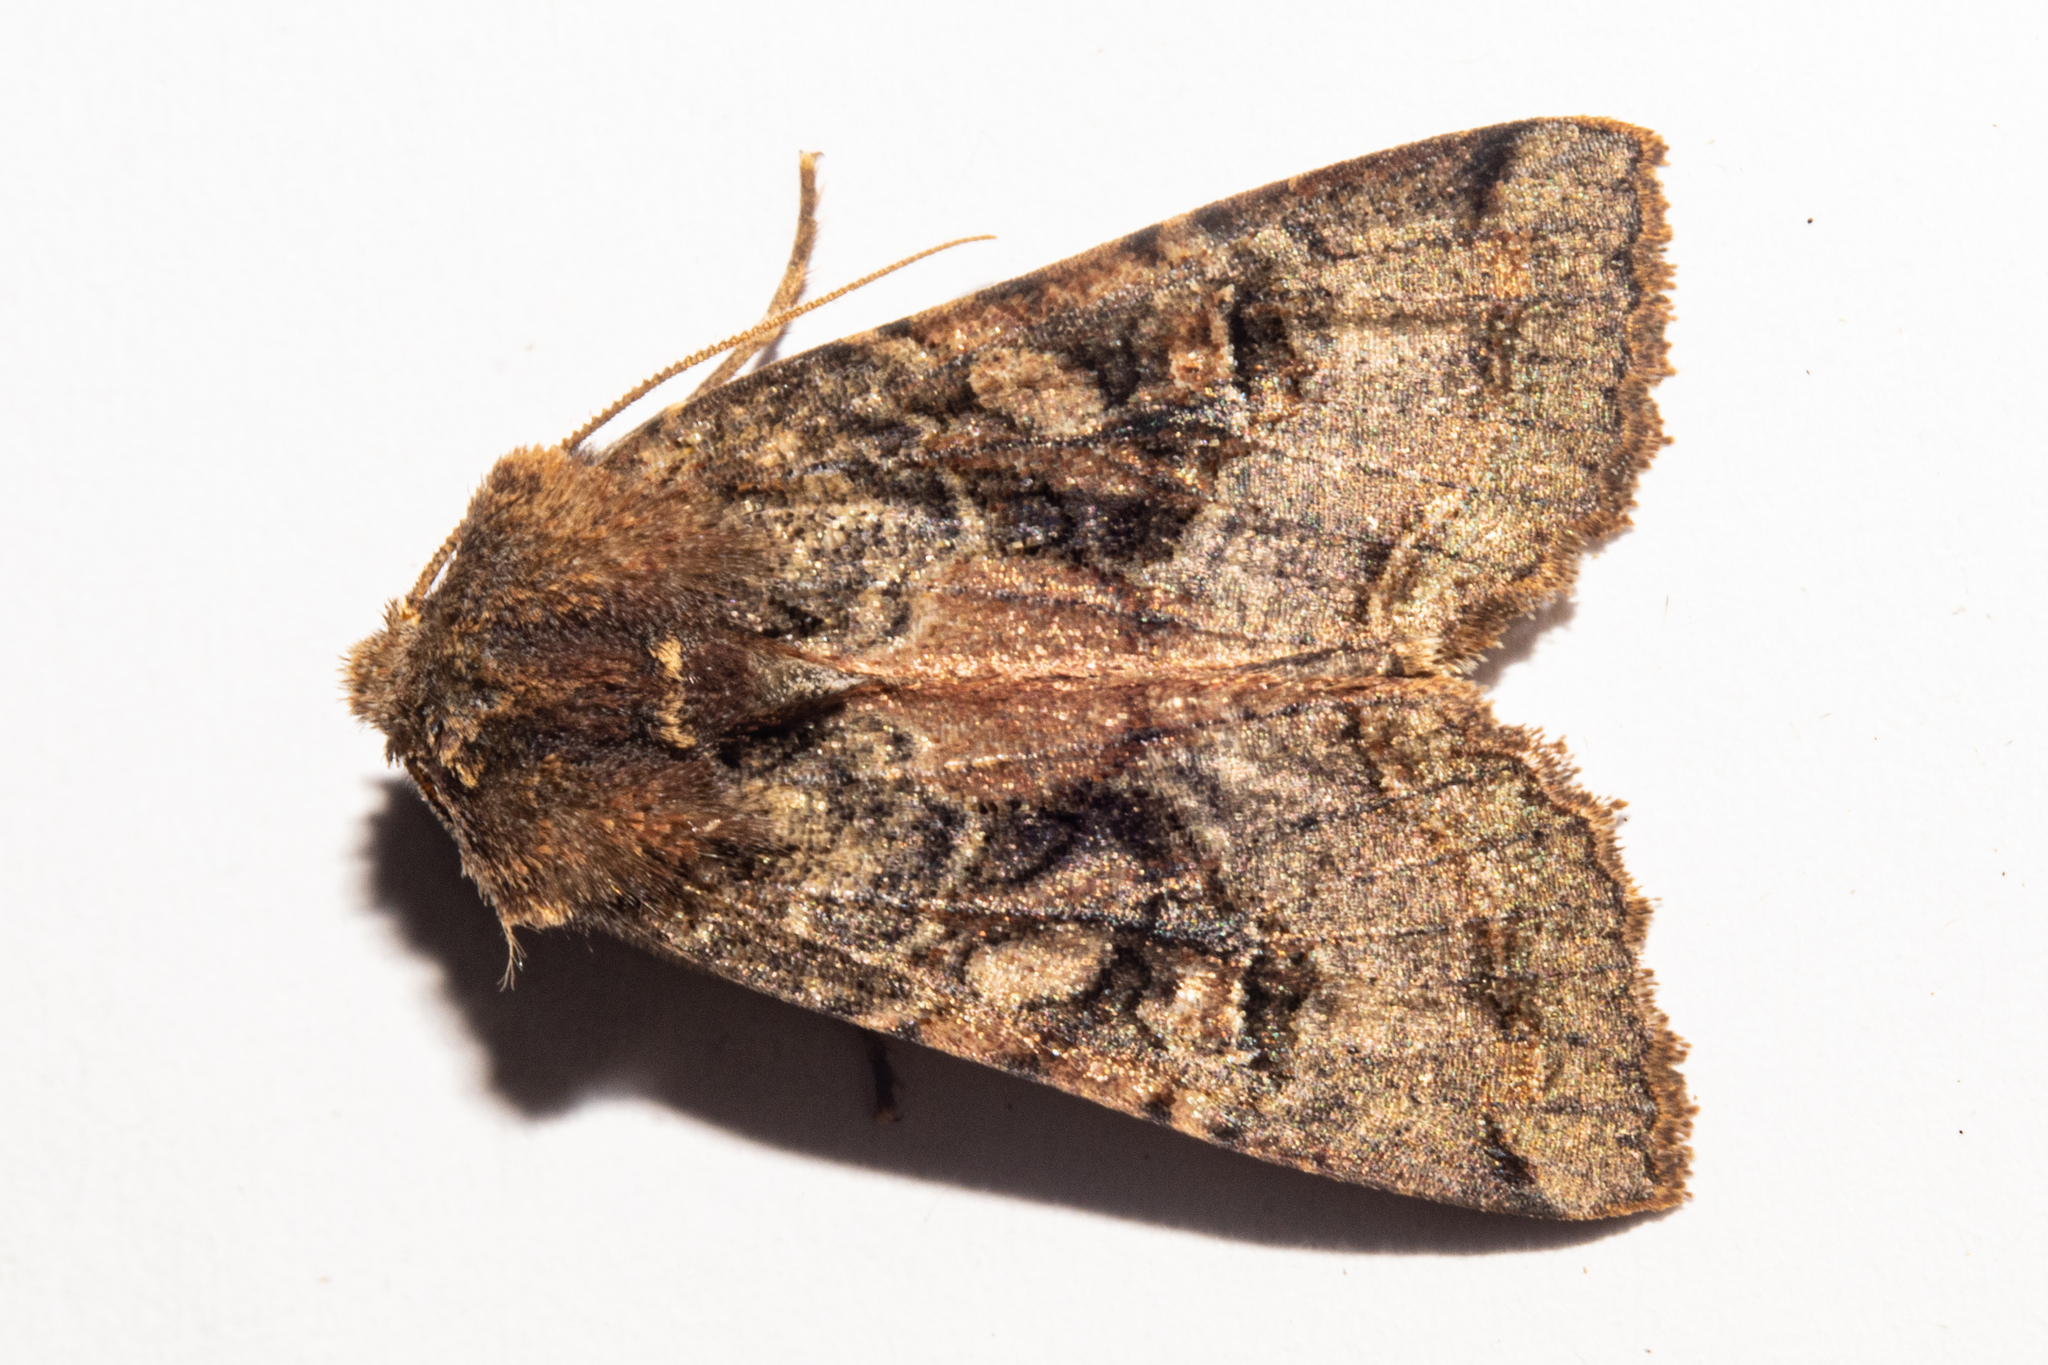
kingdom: Animalia
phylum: Arthropoda
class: Insecta
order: Lepidoptera
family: Noctuidae
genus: Meterana
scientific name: Meterana tartaraea
